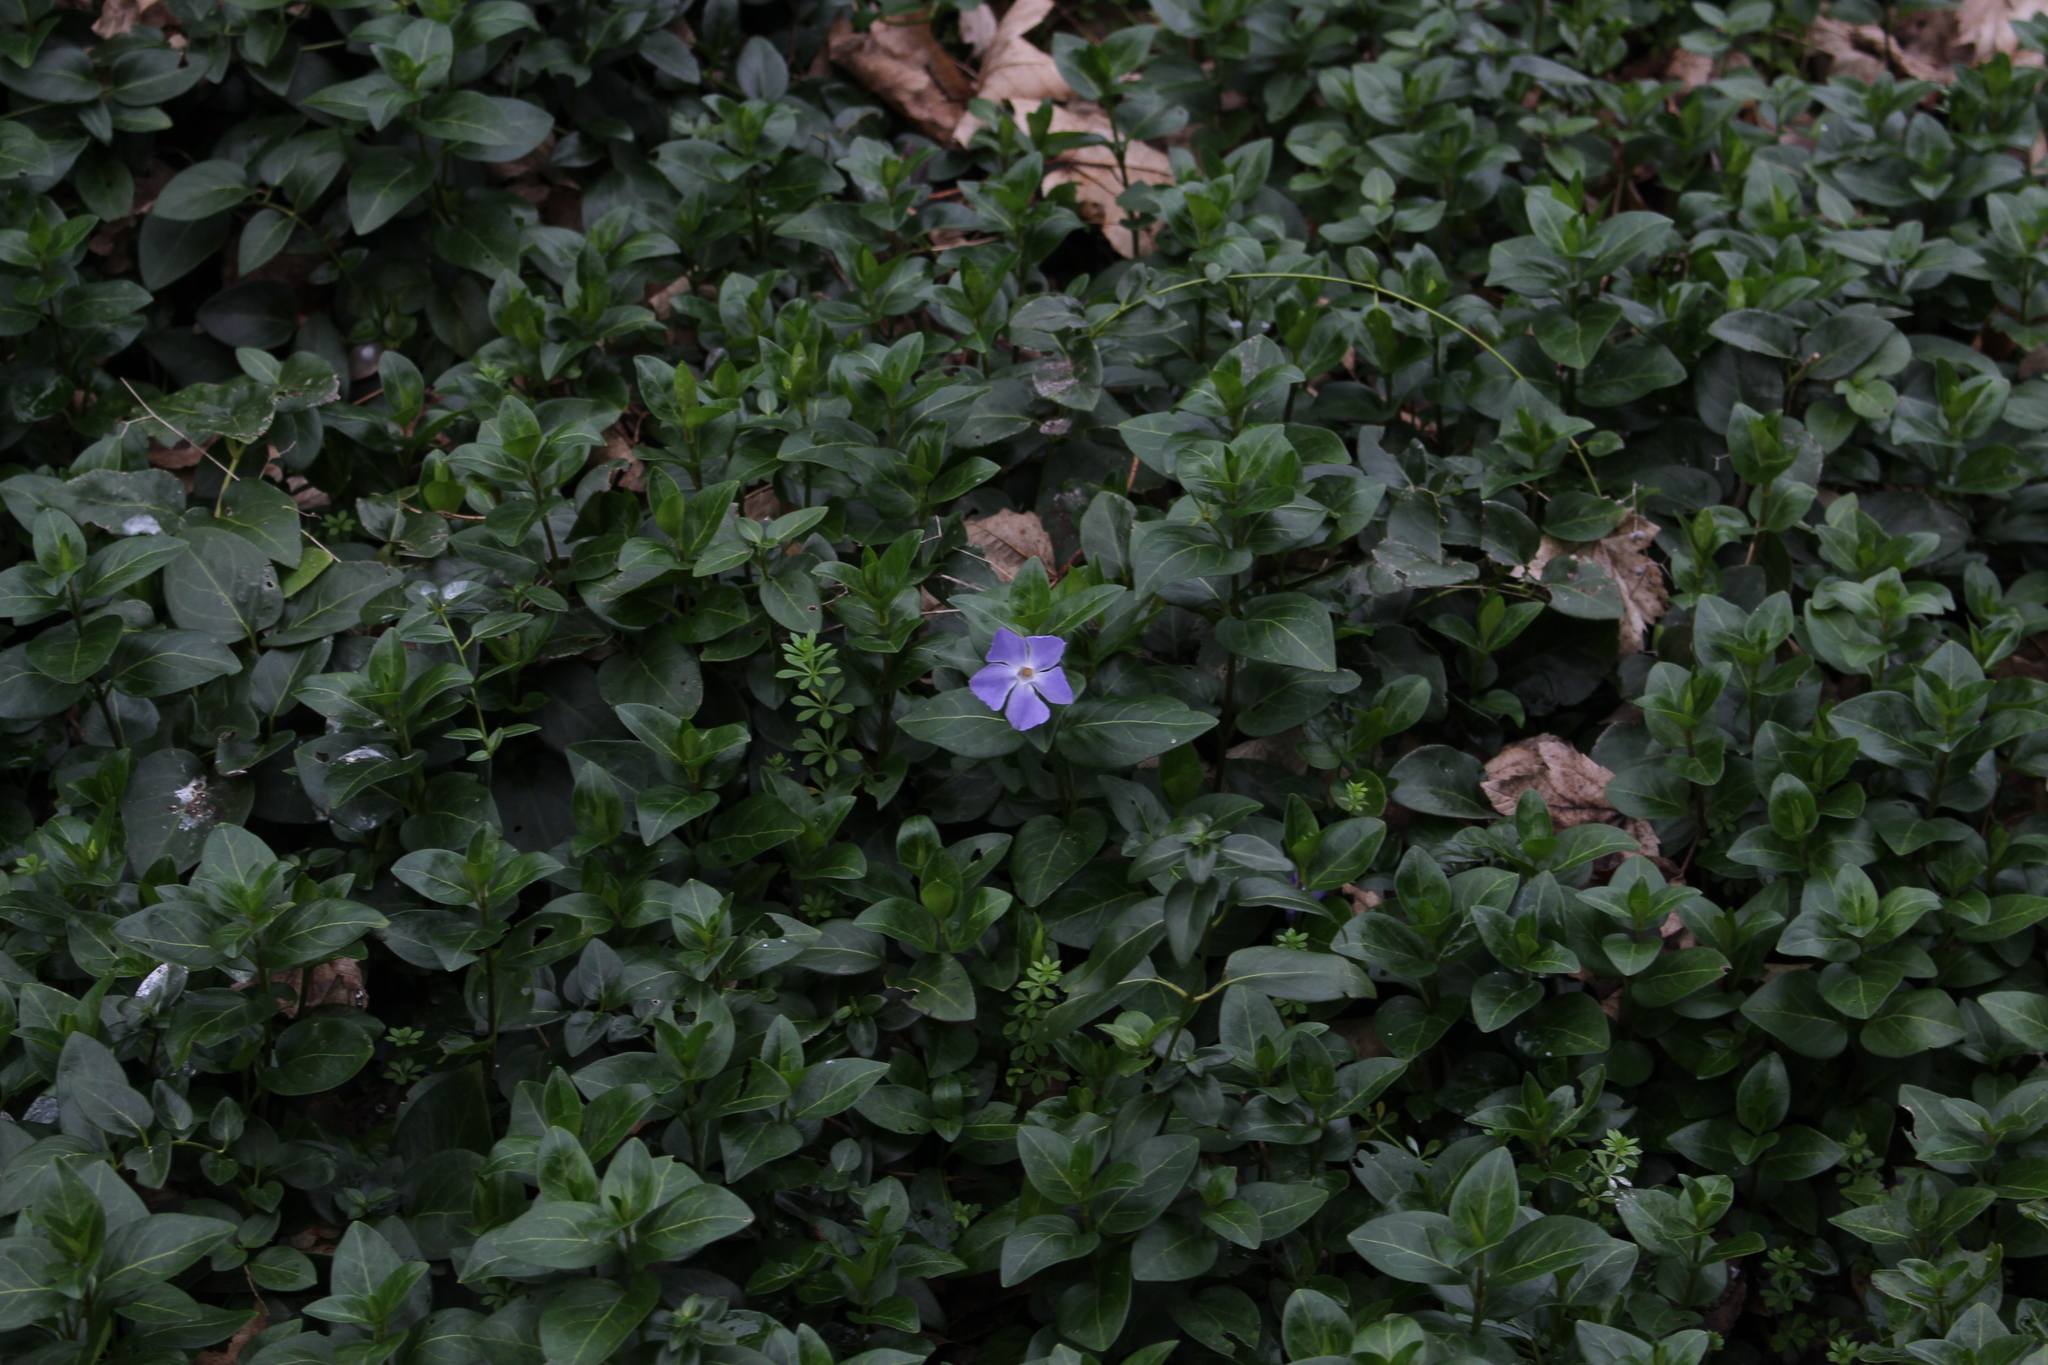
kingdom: Plantae
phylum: Tracheophyta
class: Magnoliopsida
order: Gentianales
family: Apocynaceae
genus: Vinca
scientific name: Vinca major
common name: Greater periwinkle
